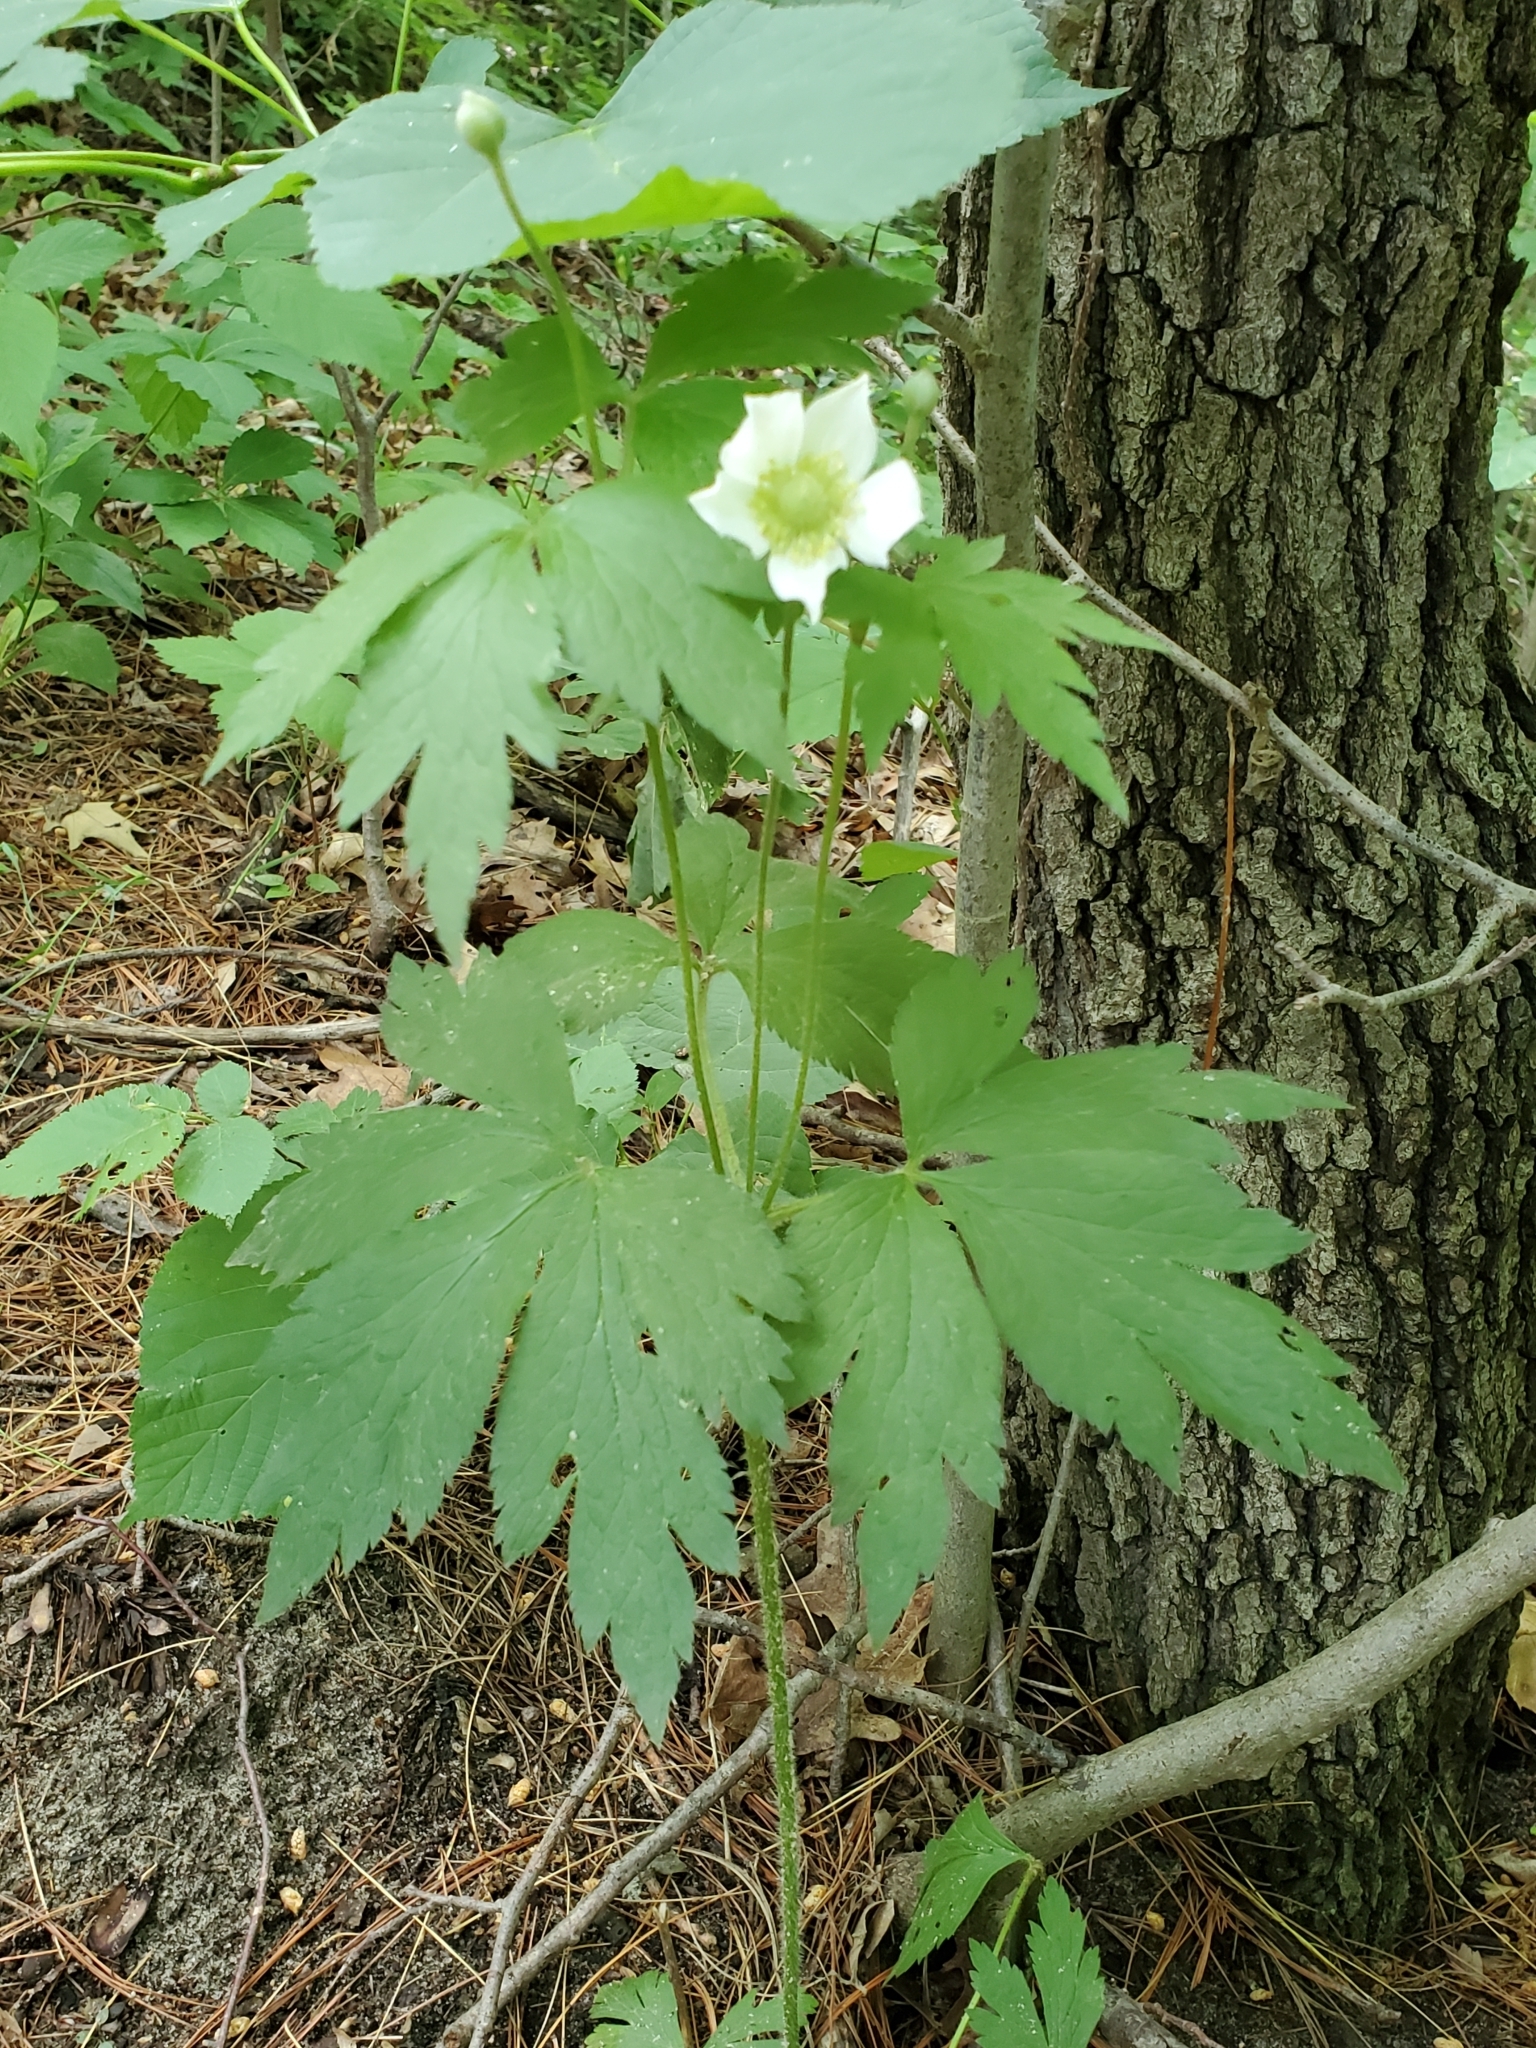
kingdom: Plantae
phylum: Tracheophyta
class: Magnoliopsida
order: Ranunculales
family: Ranunculaceae
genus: Anemone
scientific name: Anemone virginiana
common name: Tall anemone
